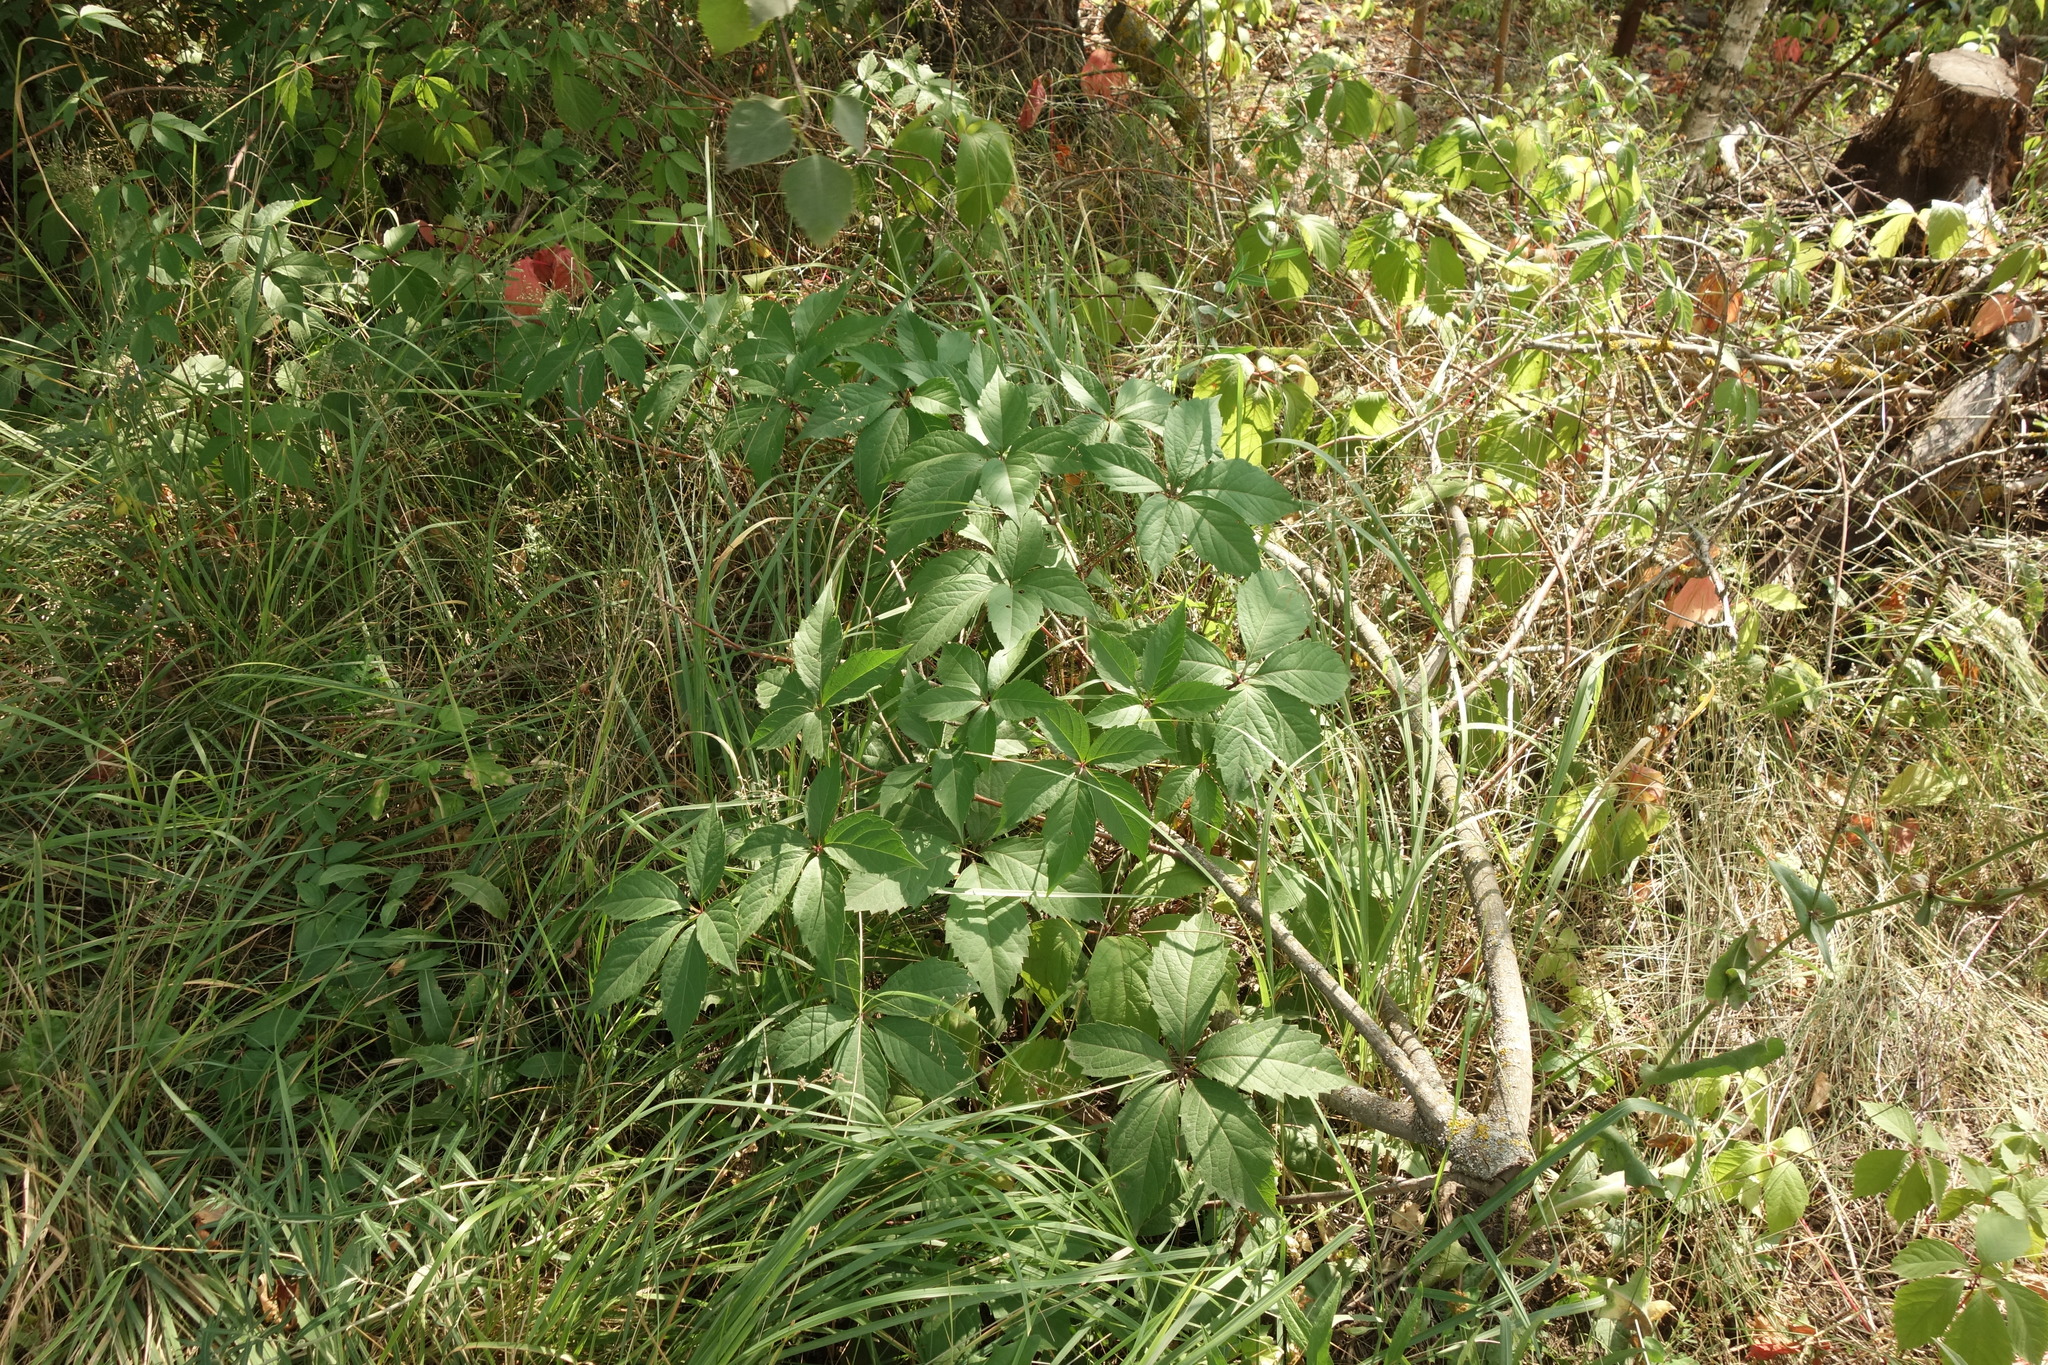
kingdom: Plantae
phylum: Tracheophyta
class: Magnoliopsida
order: Vitales
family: Vitaceae
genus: Parthenocissus
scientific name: Parthenocissus inserta
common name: False virginia-creeper
